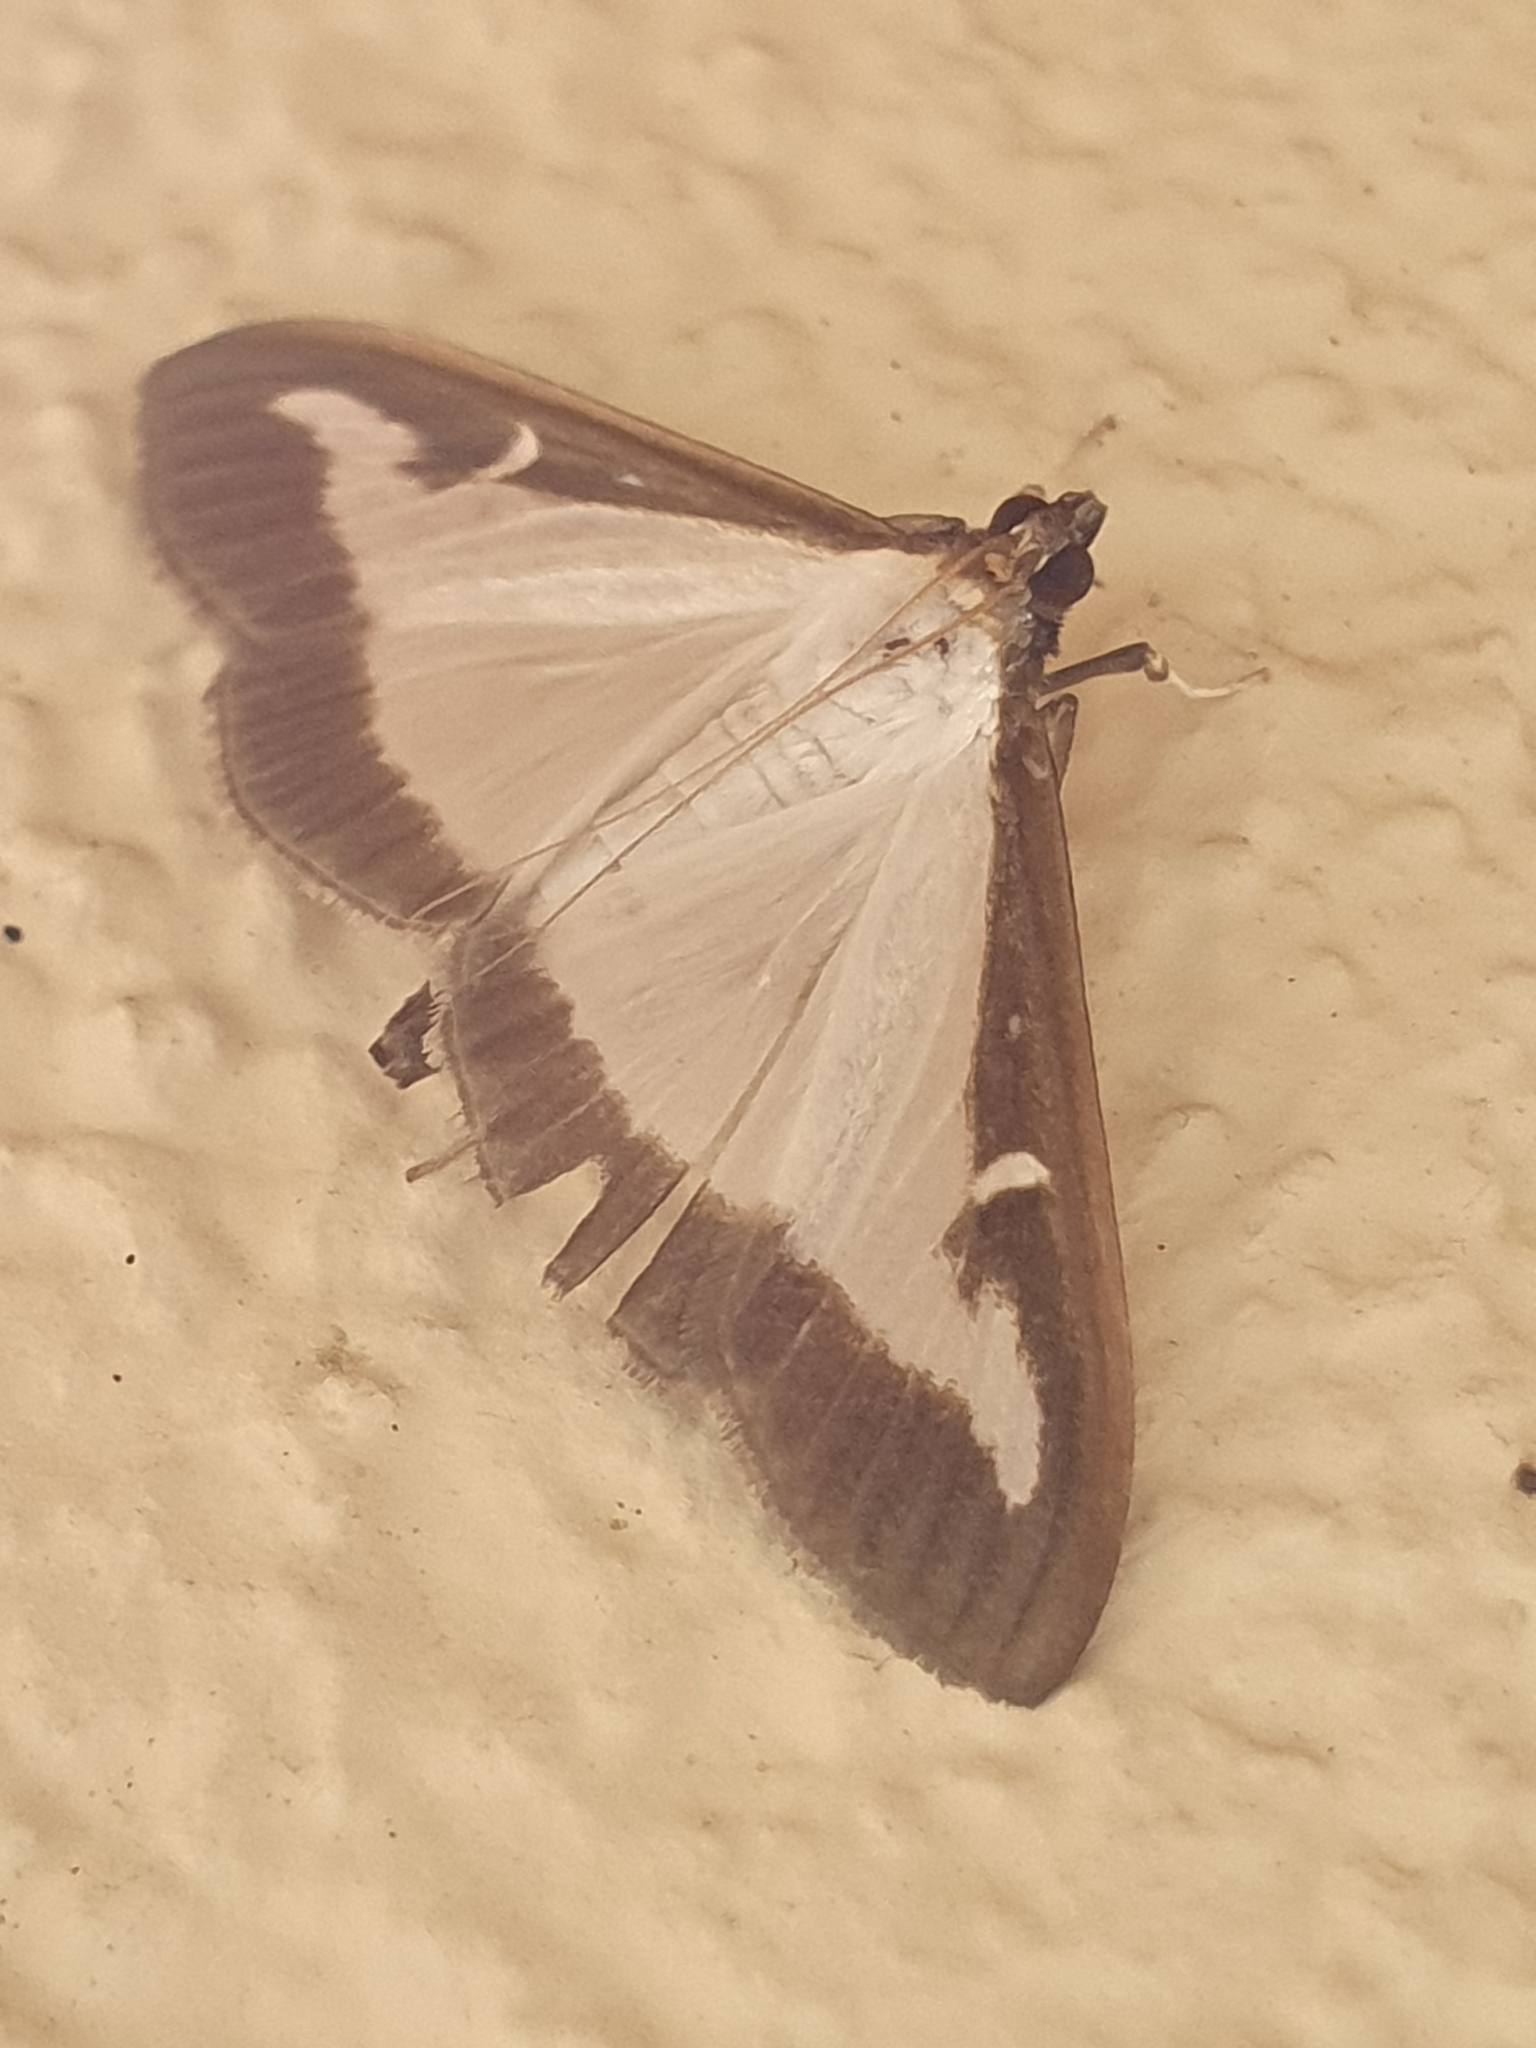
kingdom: Animalia
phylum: Arthropoda
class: Insecta
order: Lepidoptera
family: Crambidae
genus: Cydalima
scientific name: Cydalima perspectalis
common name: Box tree moth
